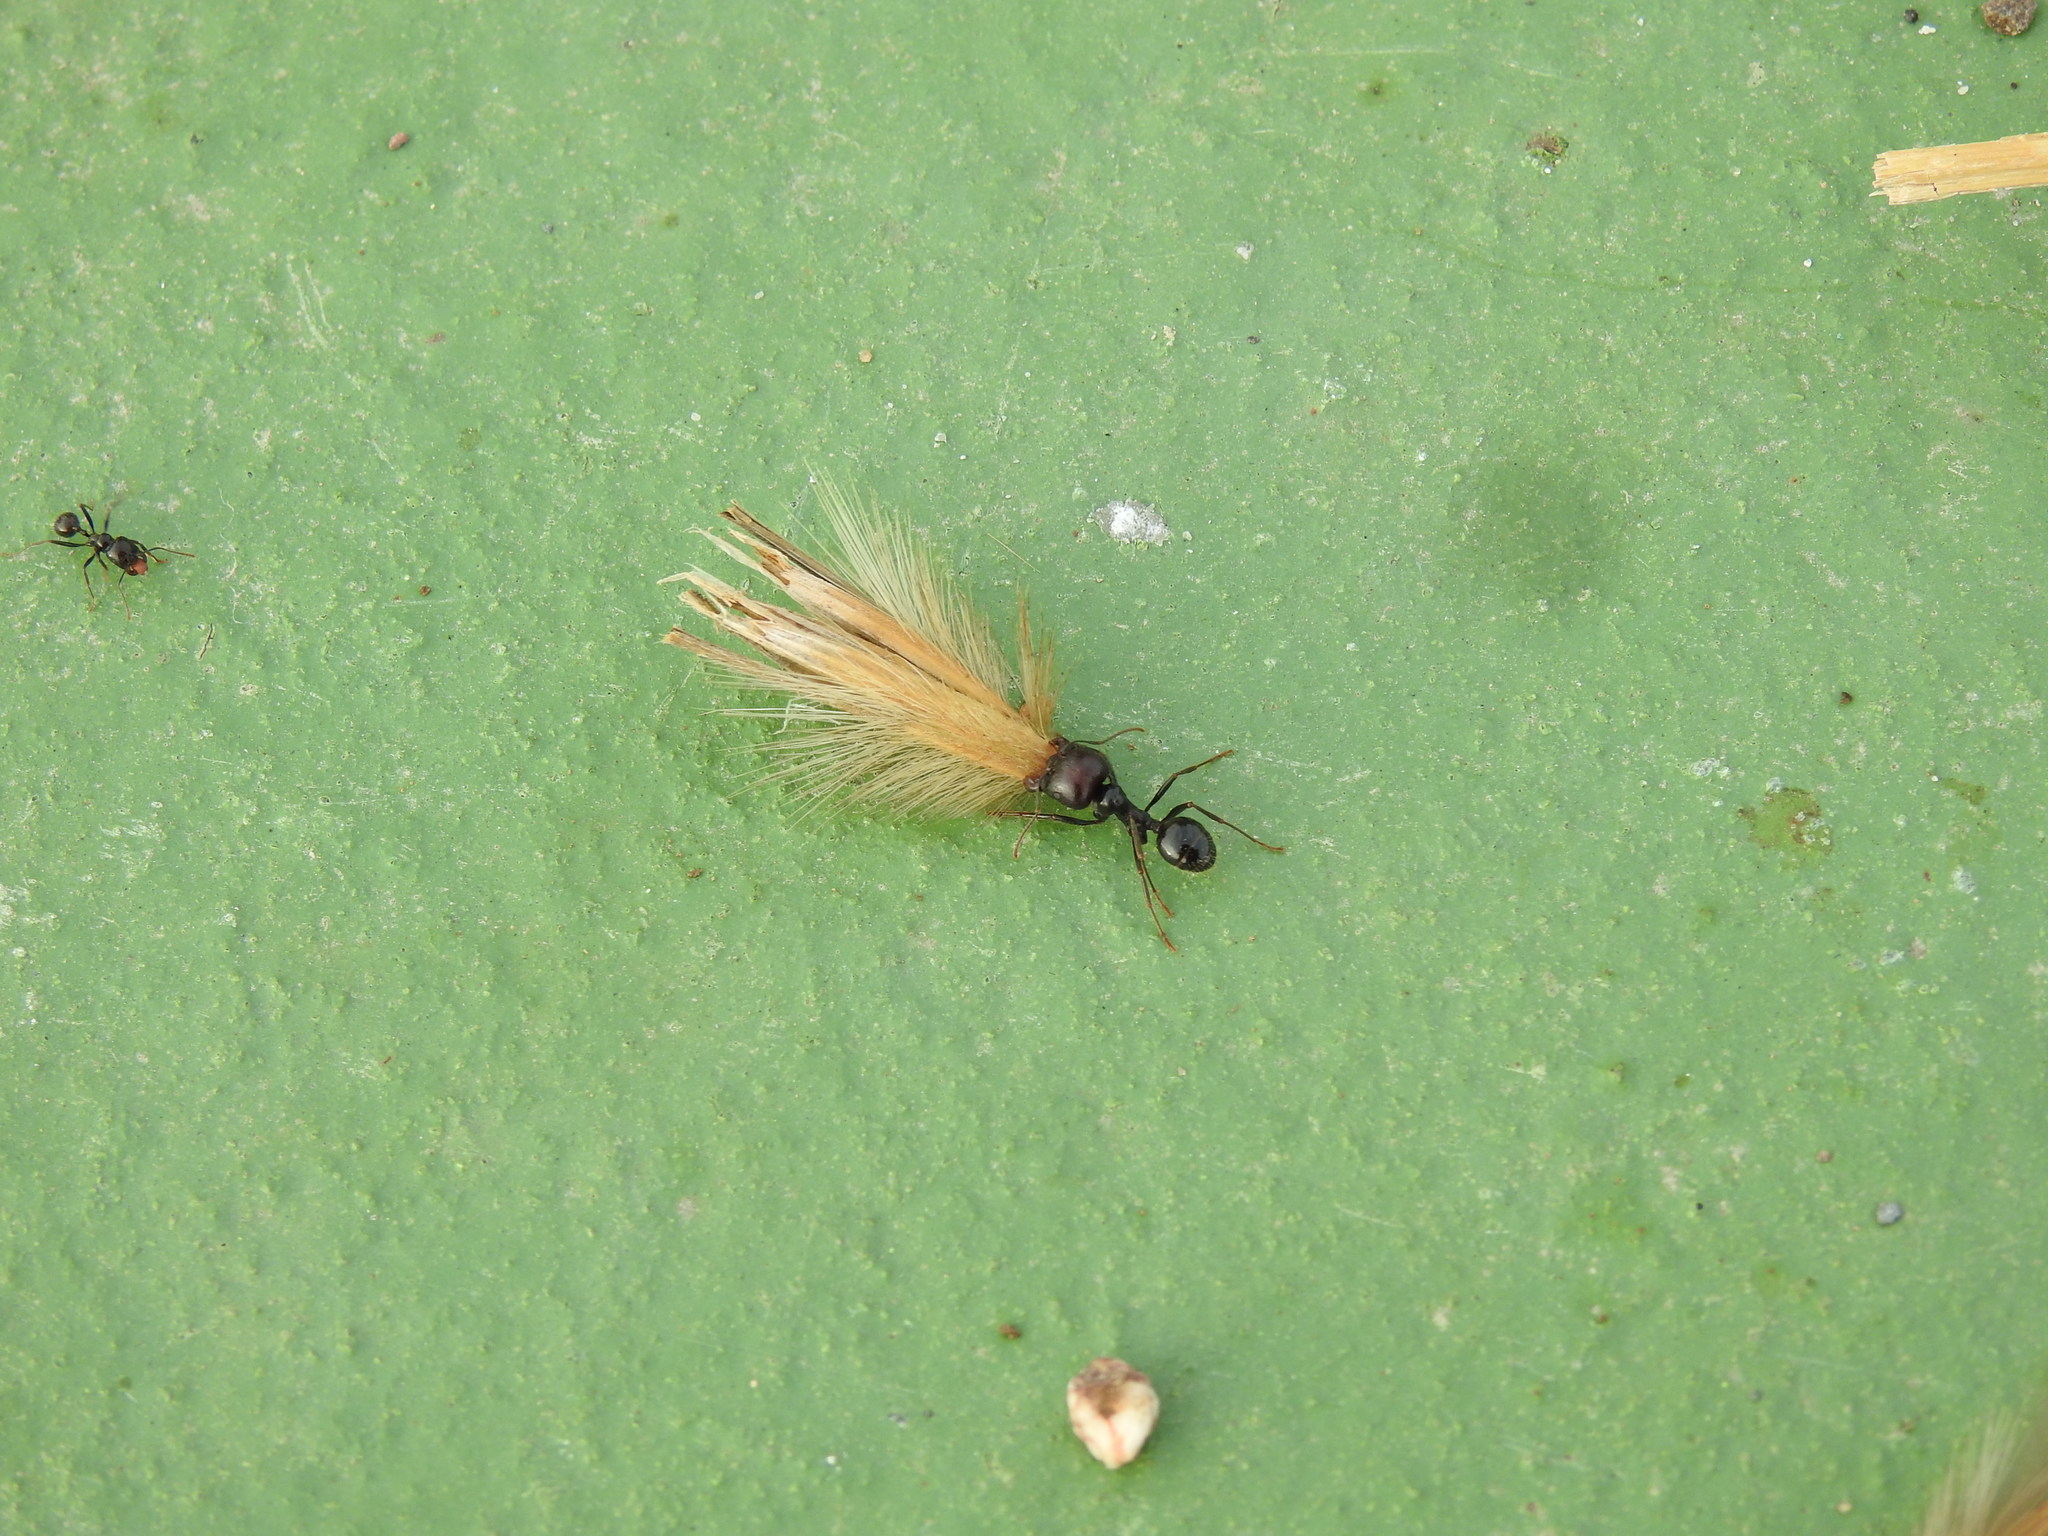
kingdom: Animalia
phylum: Arthropoda
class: Insecta
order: Hymenoptera
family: Formicidae
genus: Messor
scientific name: Messor barbarus
